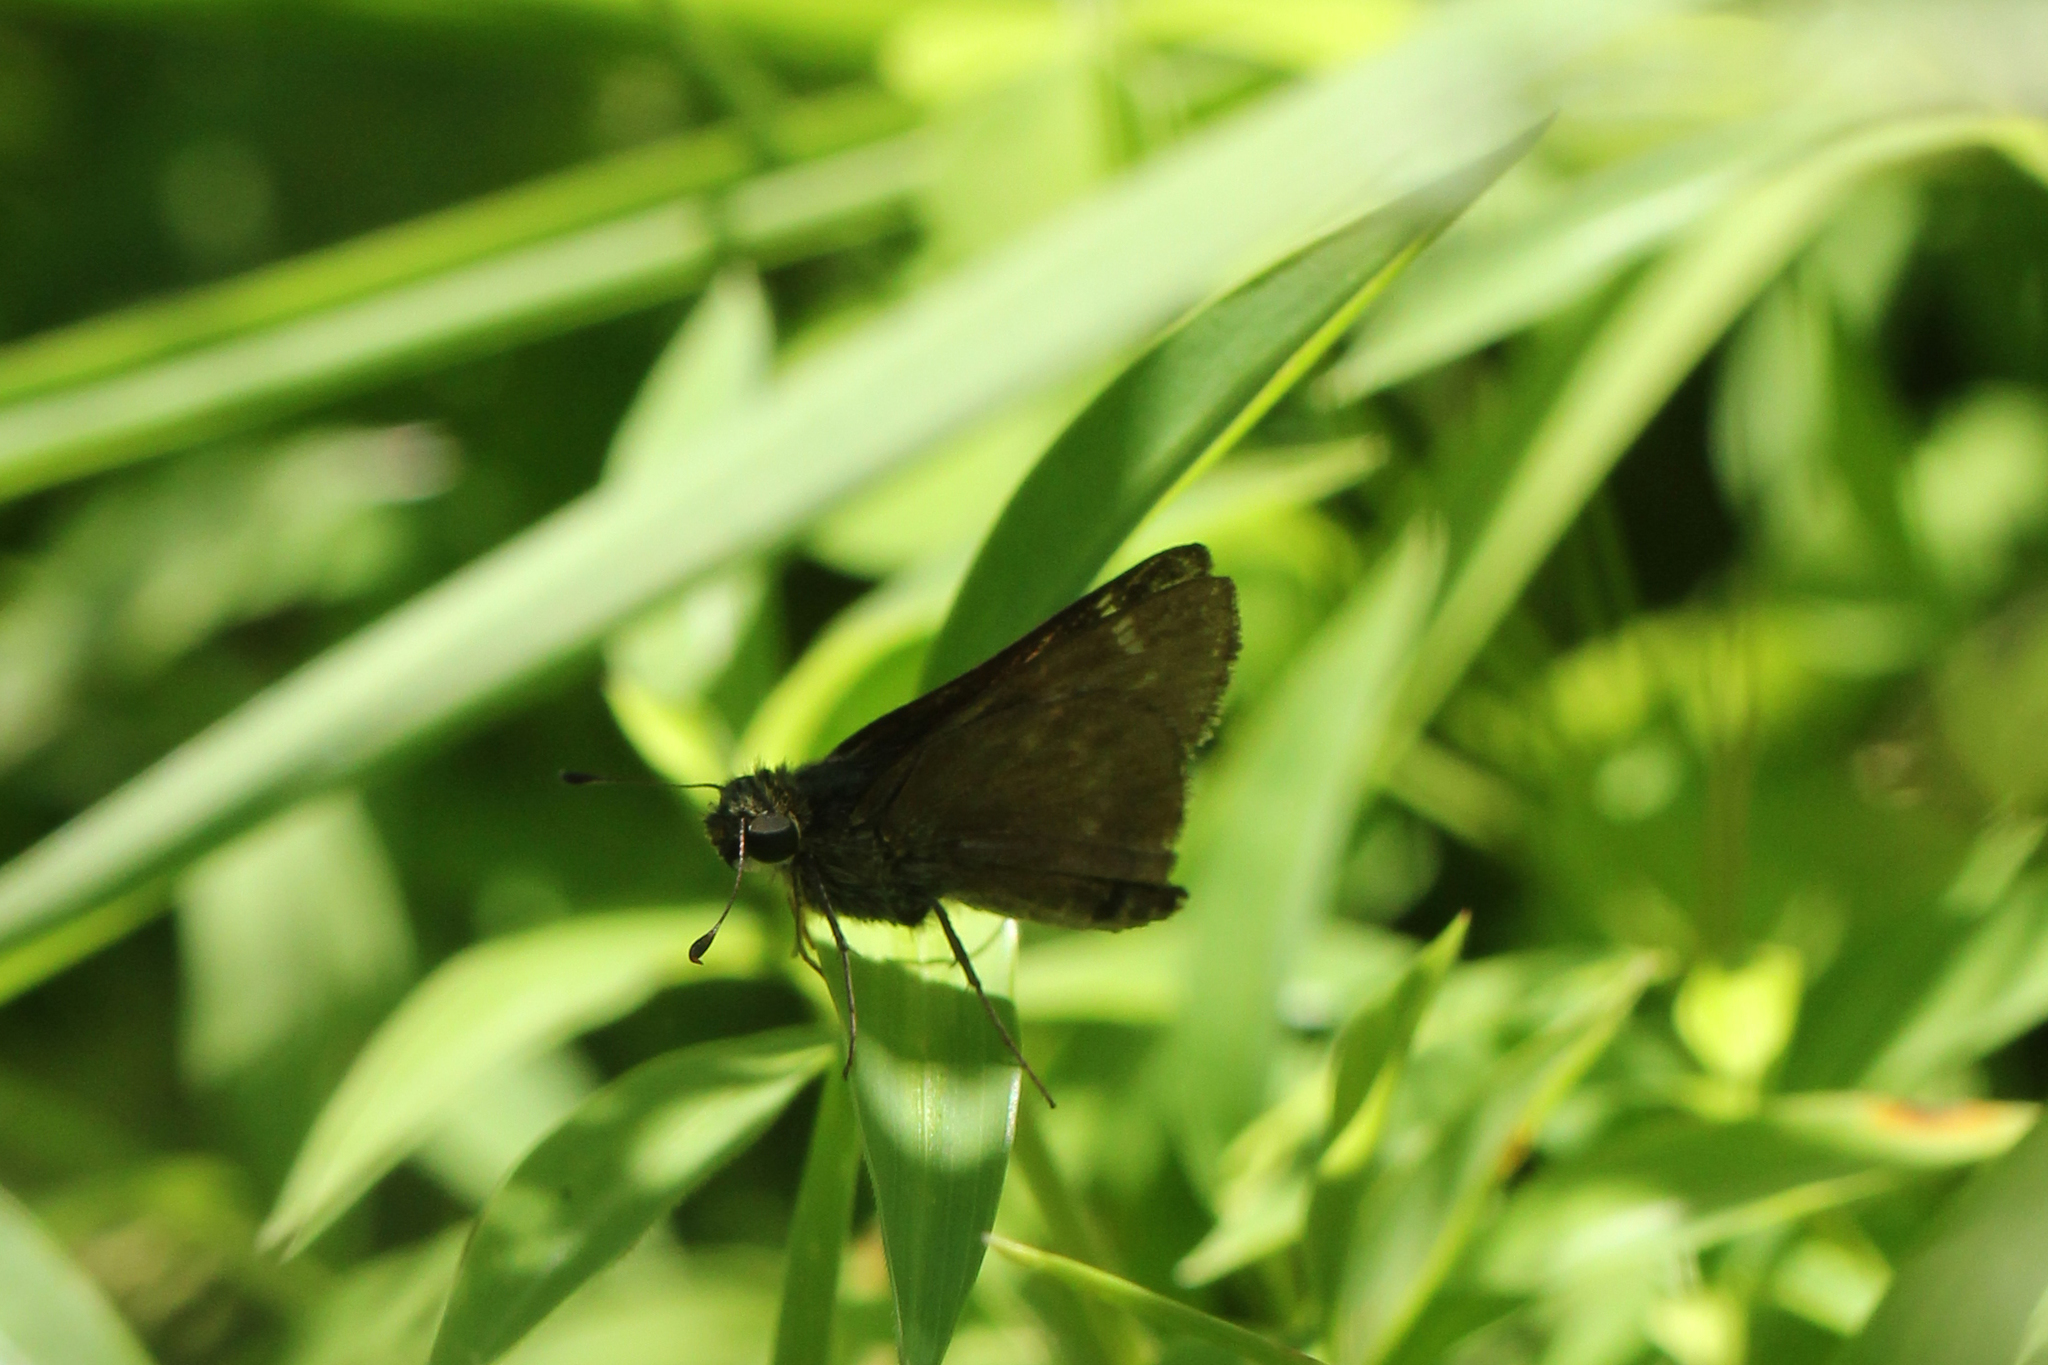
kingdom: Animalia
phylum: Arthropoda
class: Insecta
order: Lepidoptera
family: Hesperiidae
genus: Vernia
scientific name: Vernia verna
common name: Little glassywing
